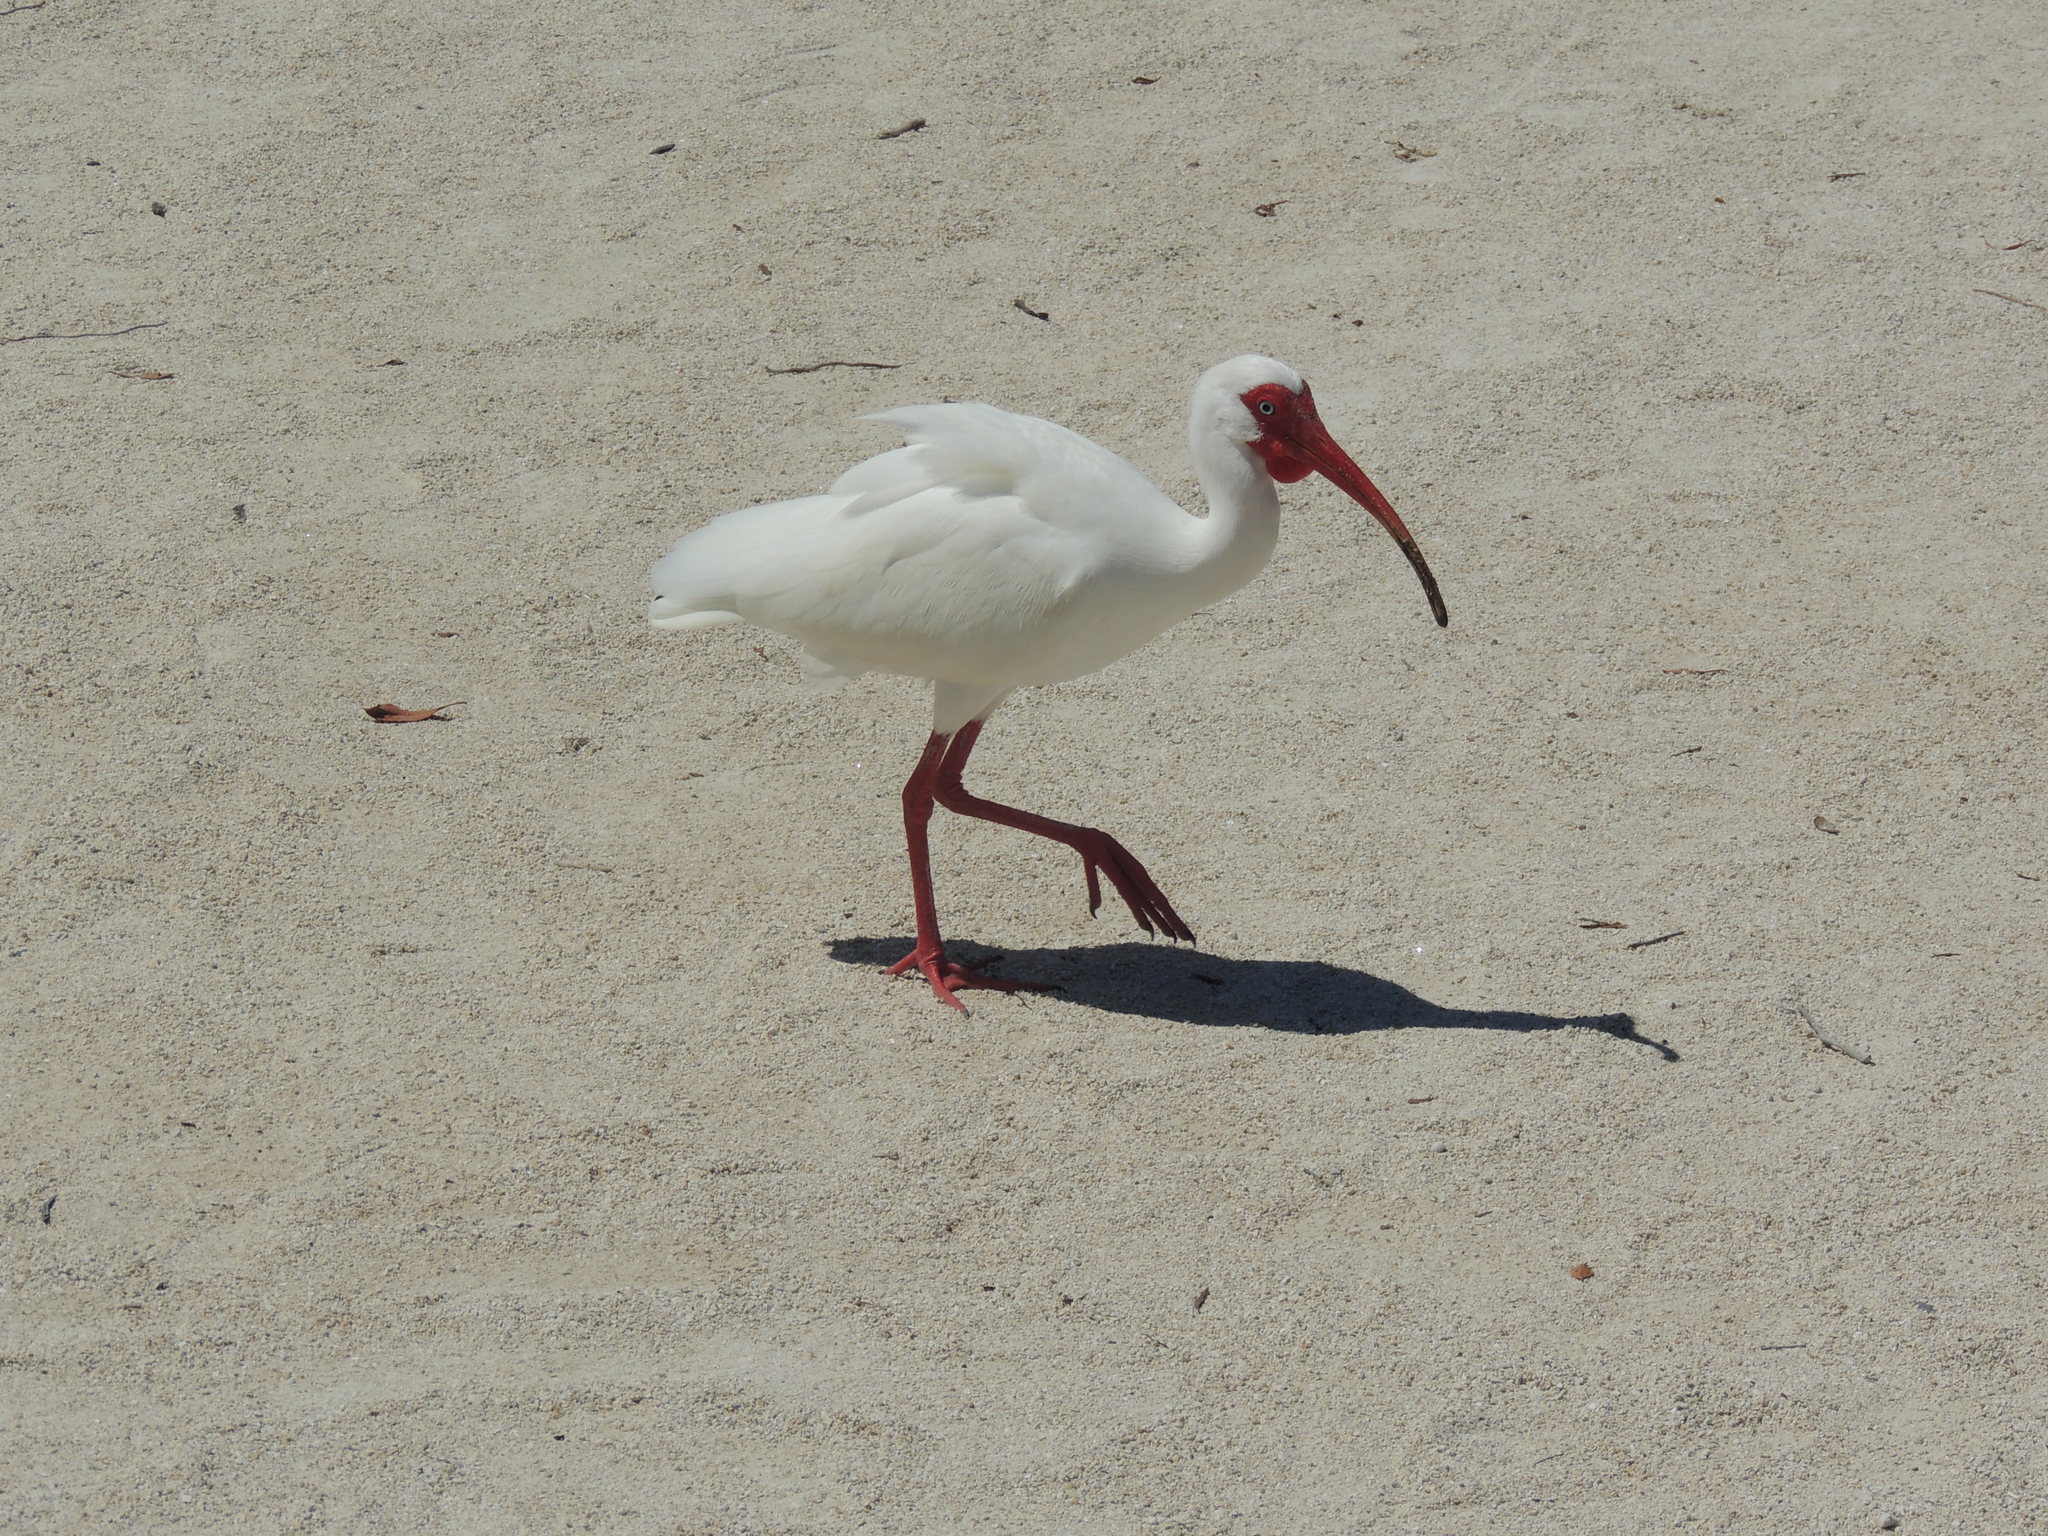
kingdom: Animalia
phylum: Chordata
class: Aves
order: Pelecaniformes
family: Threskiornithidae
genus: Eudocimus
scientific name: Eudocimus albus
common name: White ibis
